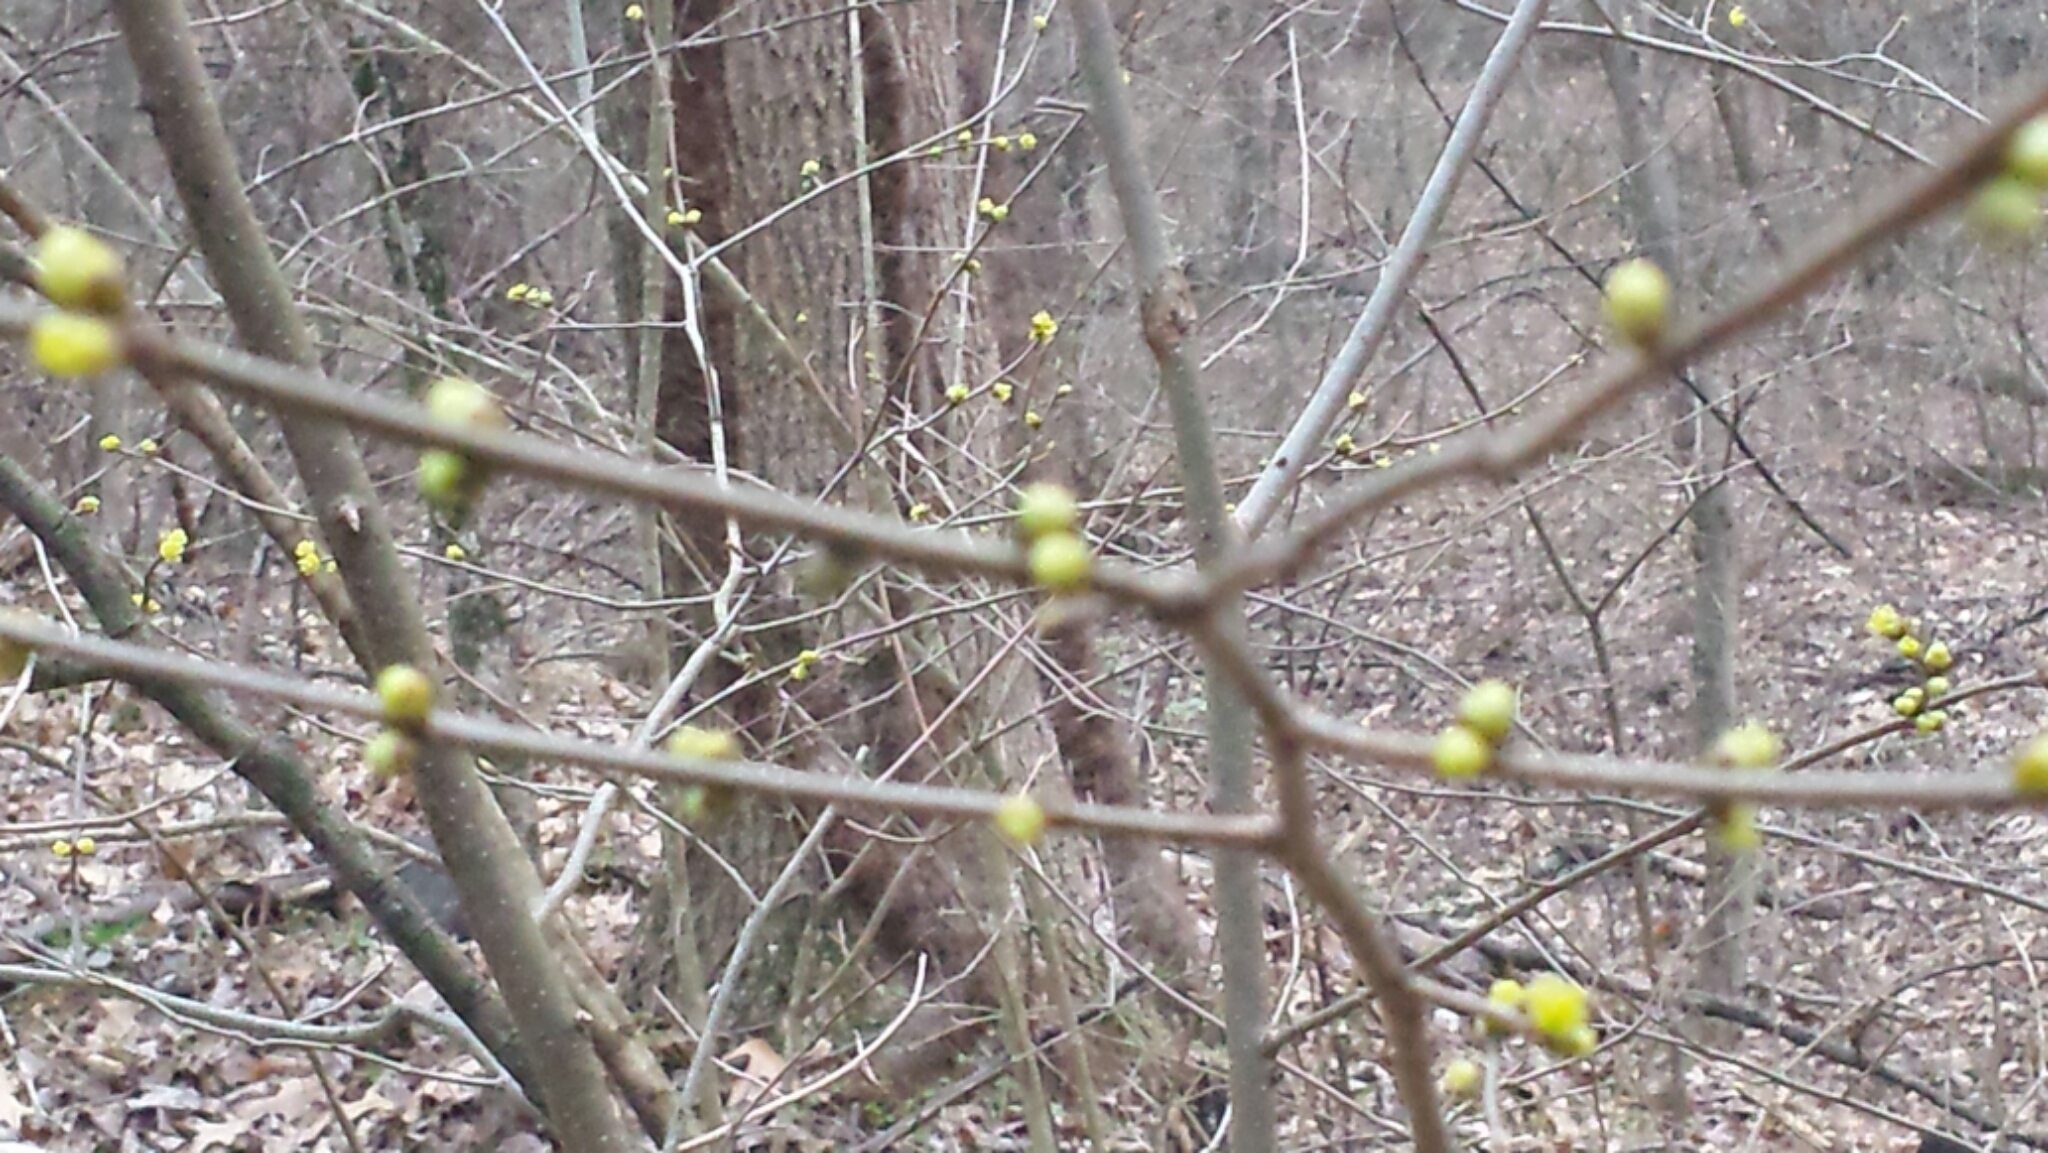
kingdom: Plantae
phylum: Tracheophyta
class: Magnoliopsida
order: Laurales
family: Lauraceae
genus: Lindera
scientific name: Lindera benzoin
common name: Spicebush
